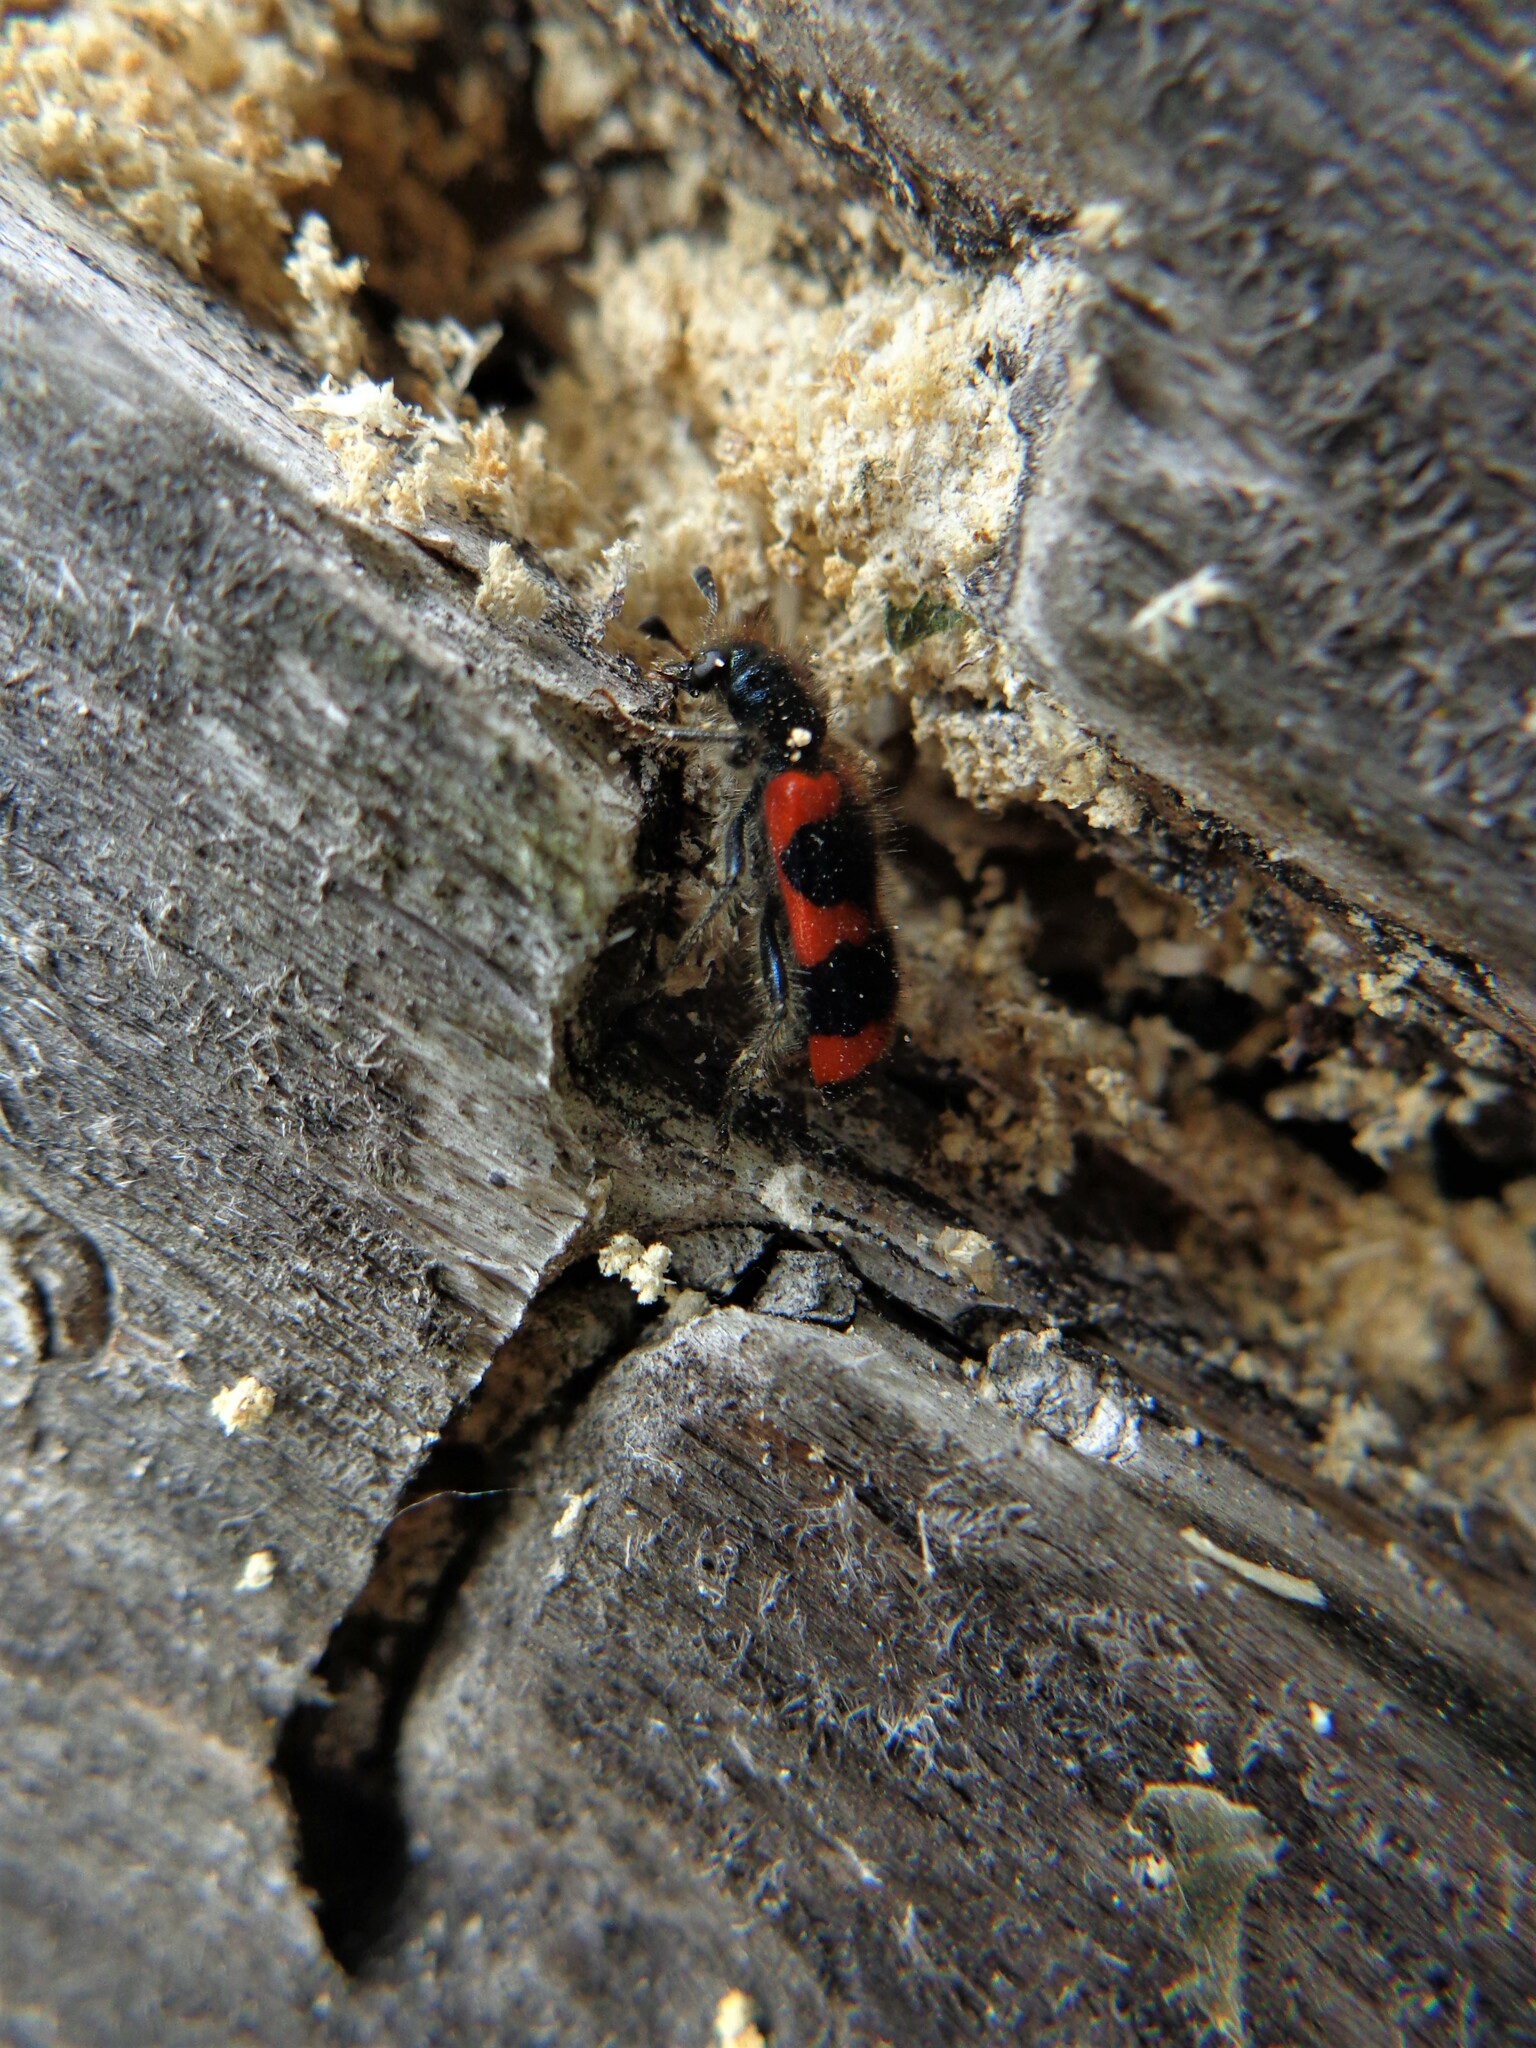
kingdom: Animalia
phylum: Arthropoda
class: Insecta
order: Coleoptera
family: Cleridae
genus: Trichodes
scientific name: Trichodes apiarius
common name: Bee-eating beetle
